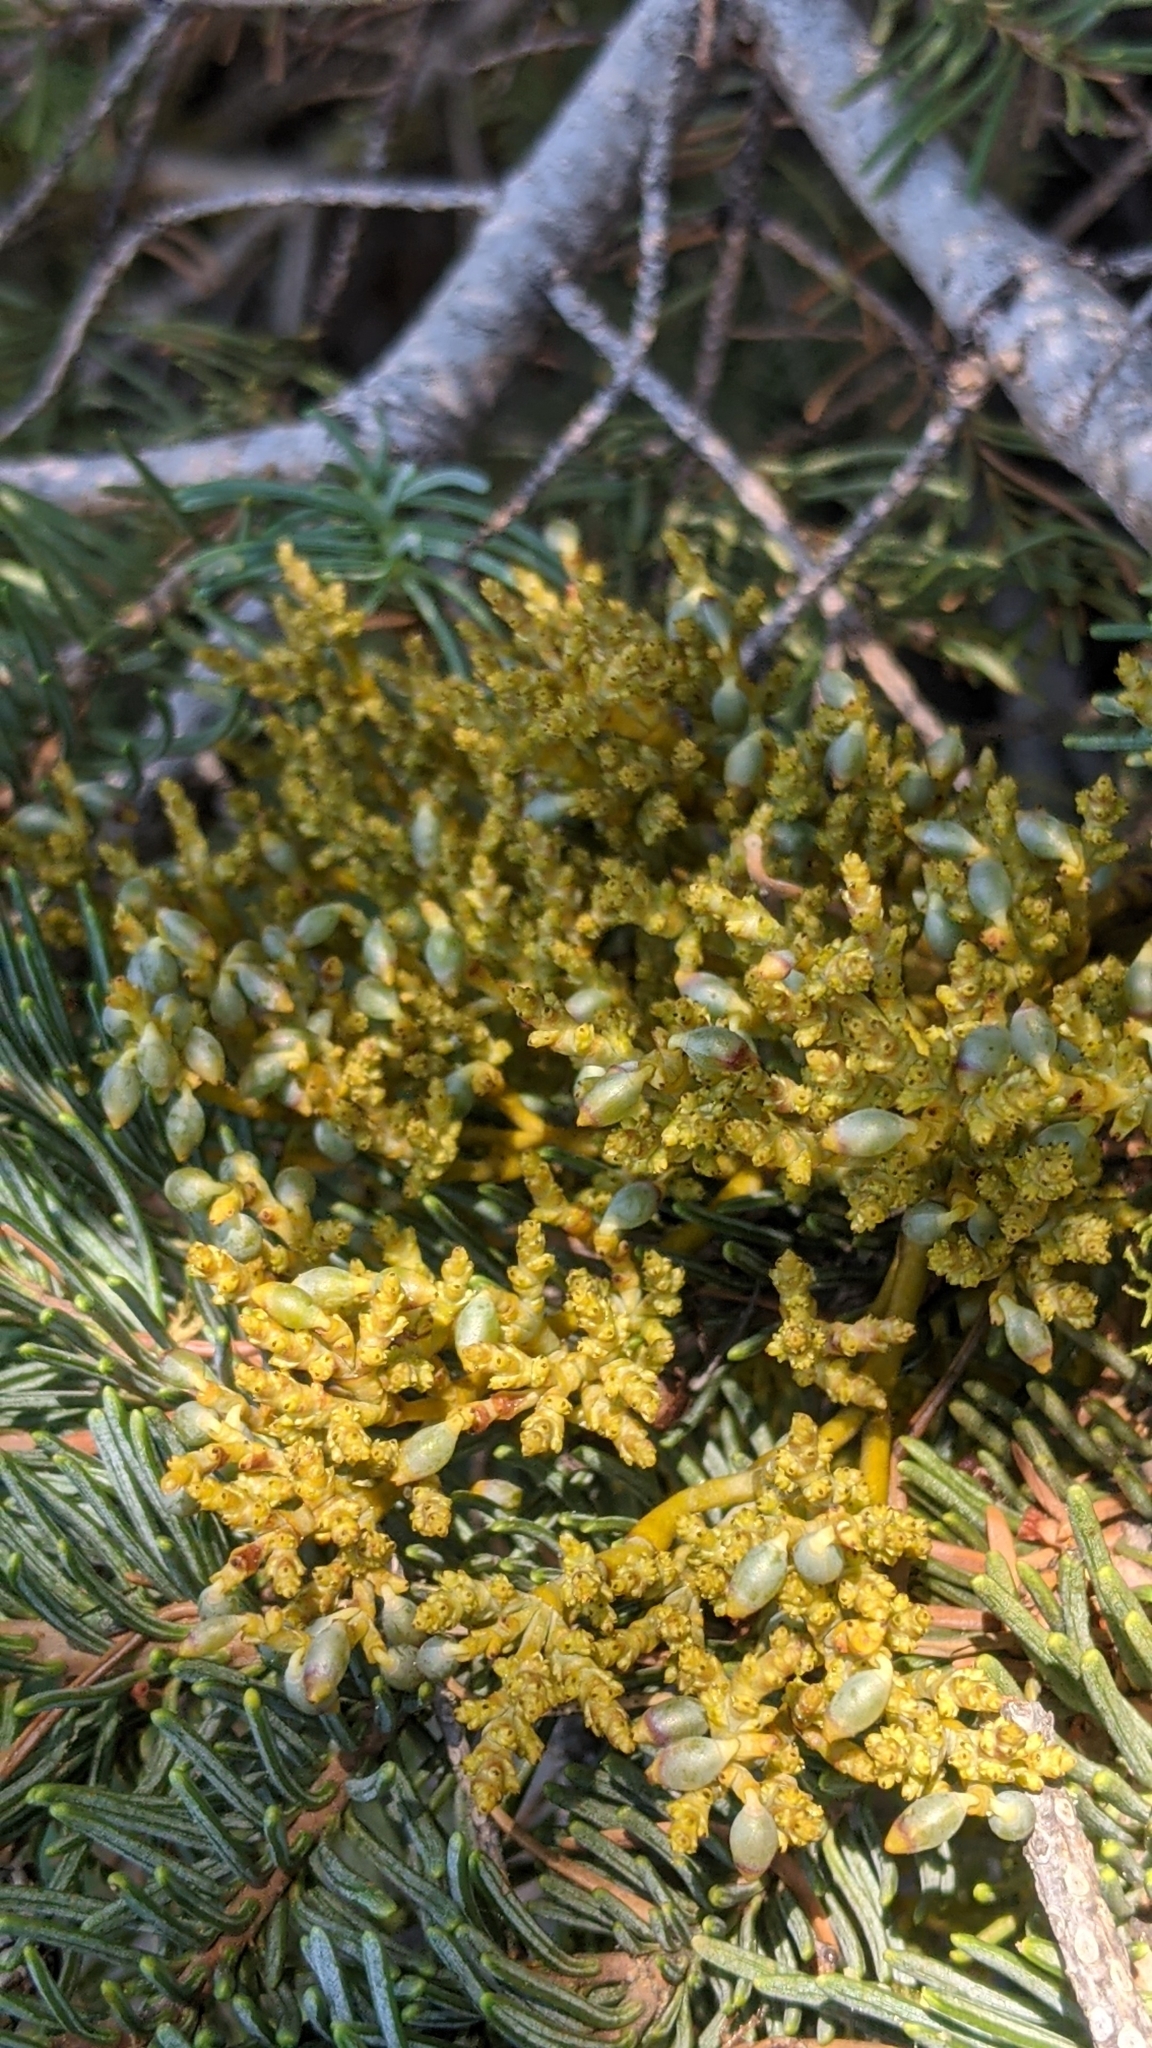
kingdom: Plantae
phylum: Tracheophyta
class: Magnoliopsida
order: Santalales
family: Viscaceae
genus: Arceuthobium
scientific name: Arceuthobium abietinum
